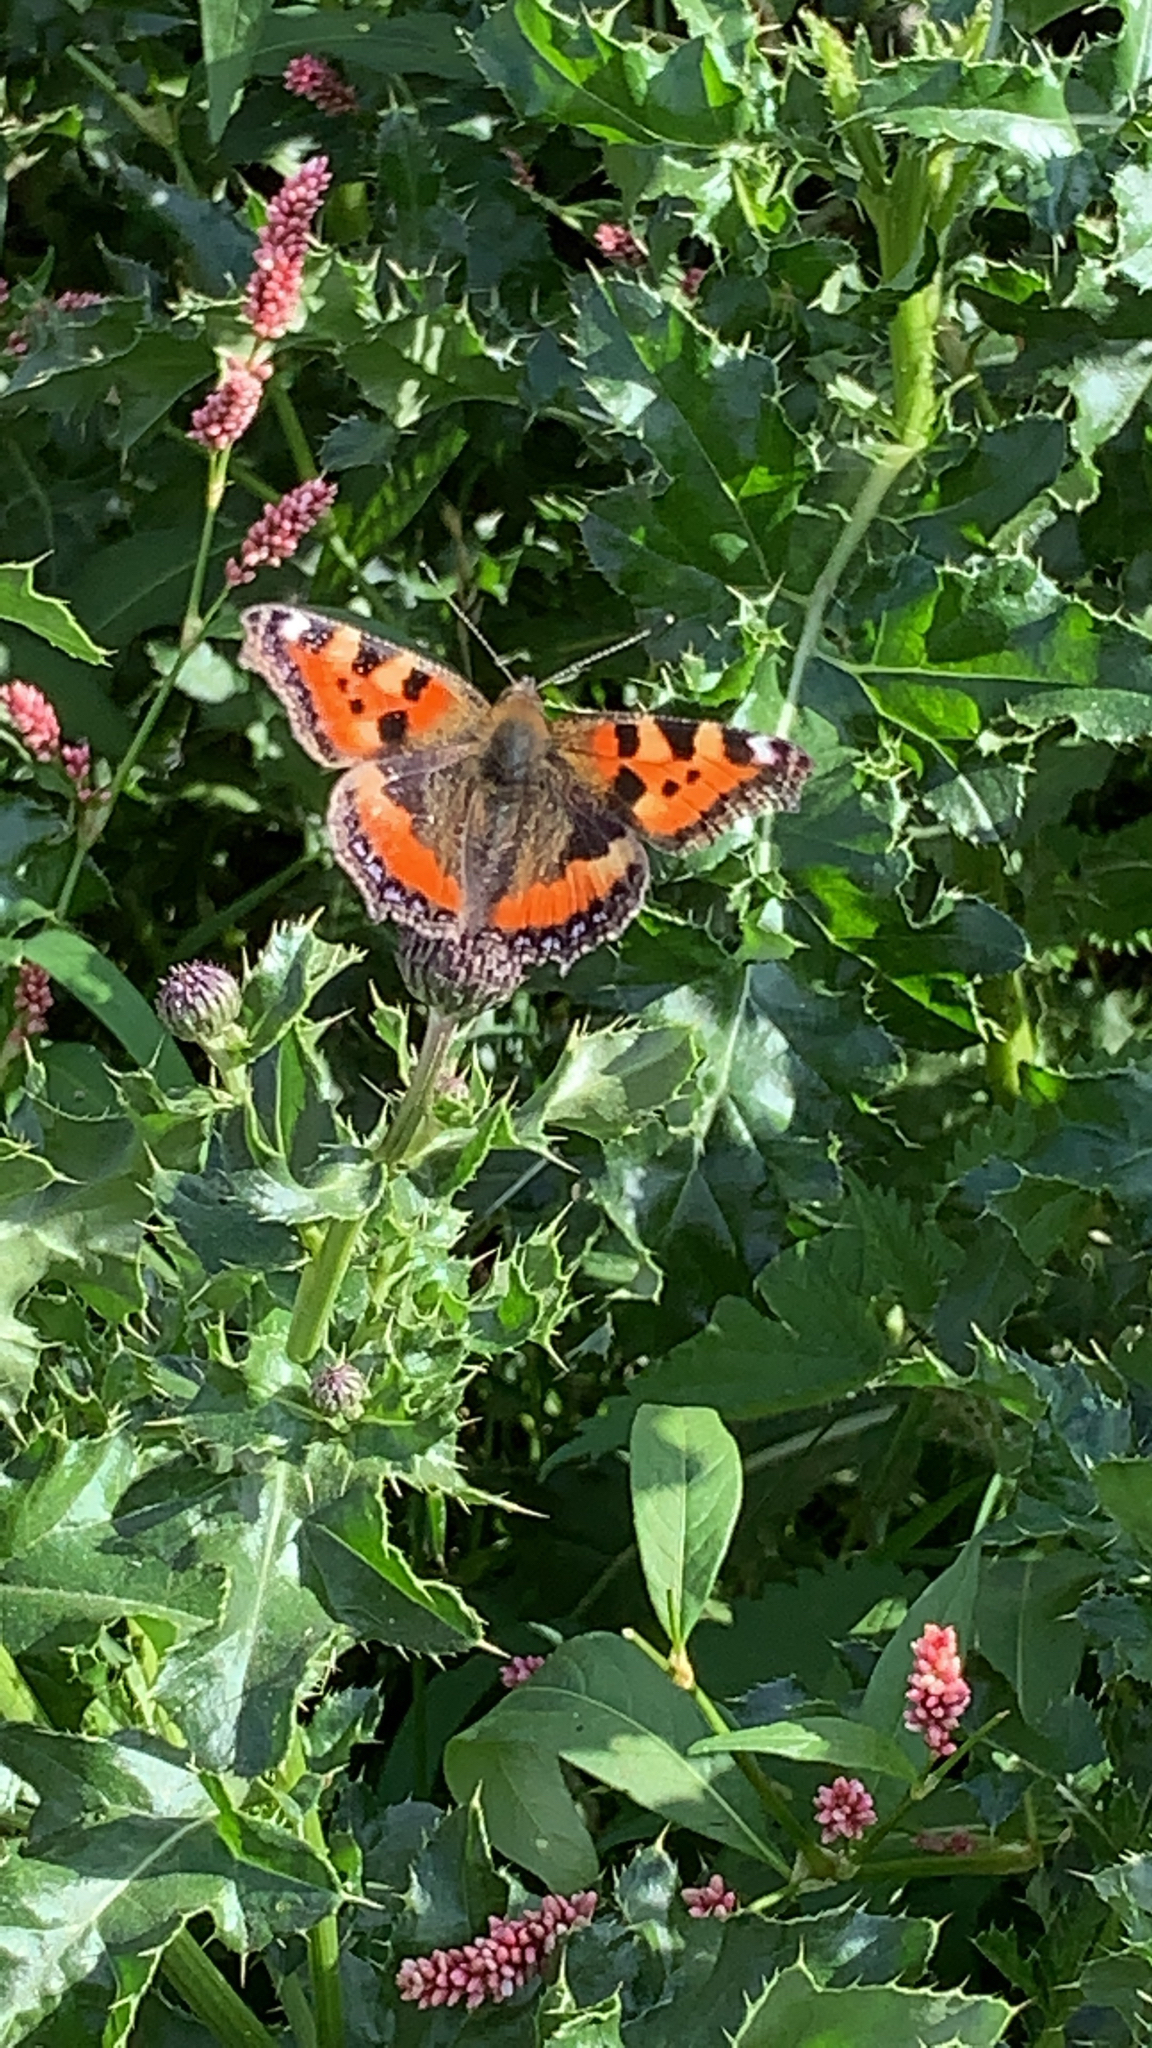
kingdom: Animalia
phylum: Arthropoda
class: Insecta
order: Lepidoptera
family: Nymphalidae
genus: Aglais
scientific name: Aglais urticae
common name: Small tortoiseshell
